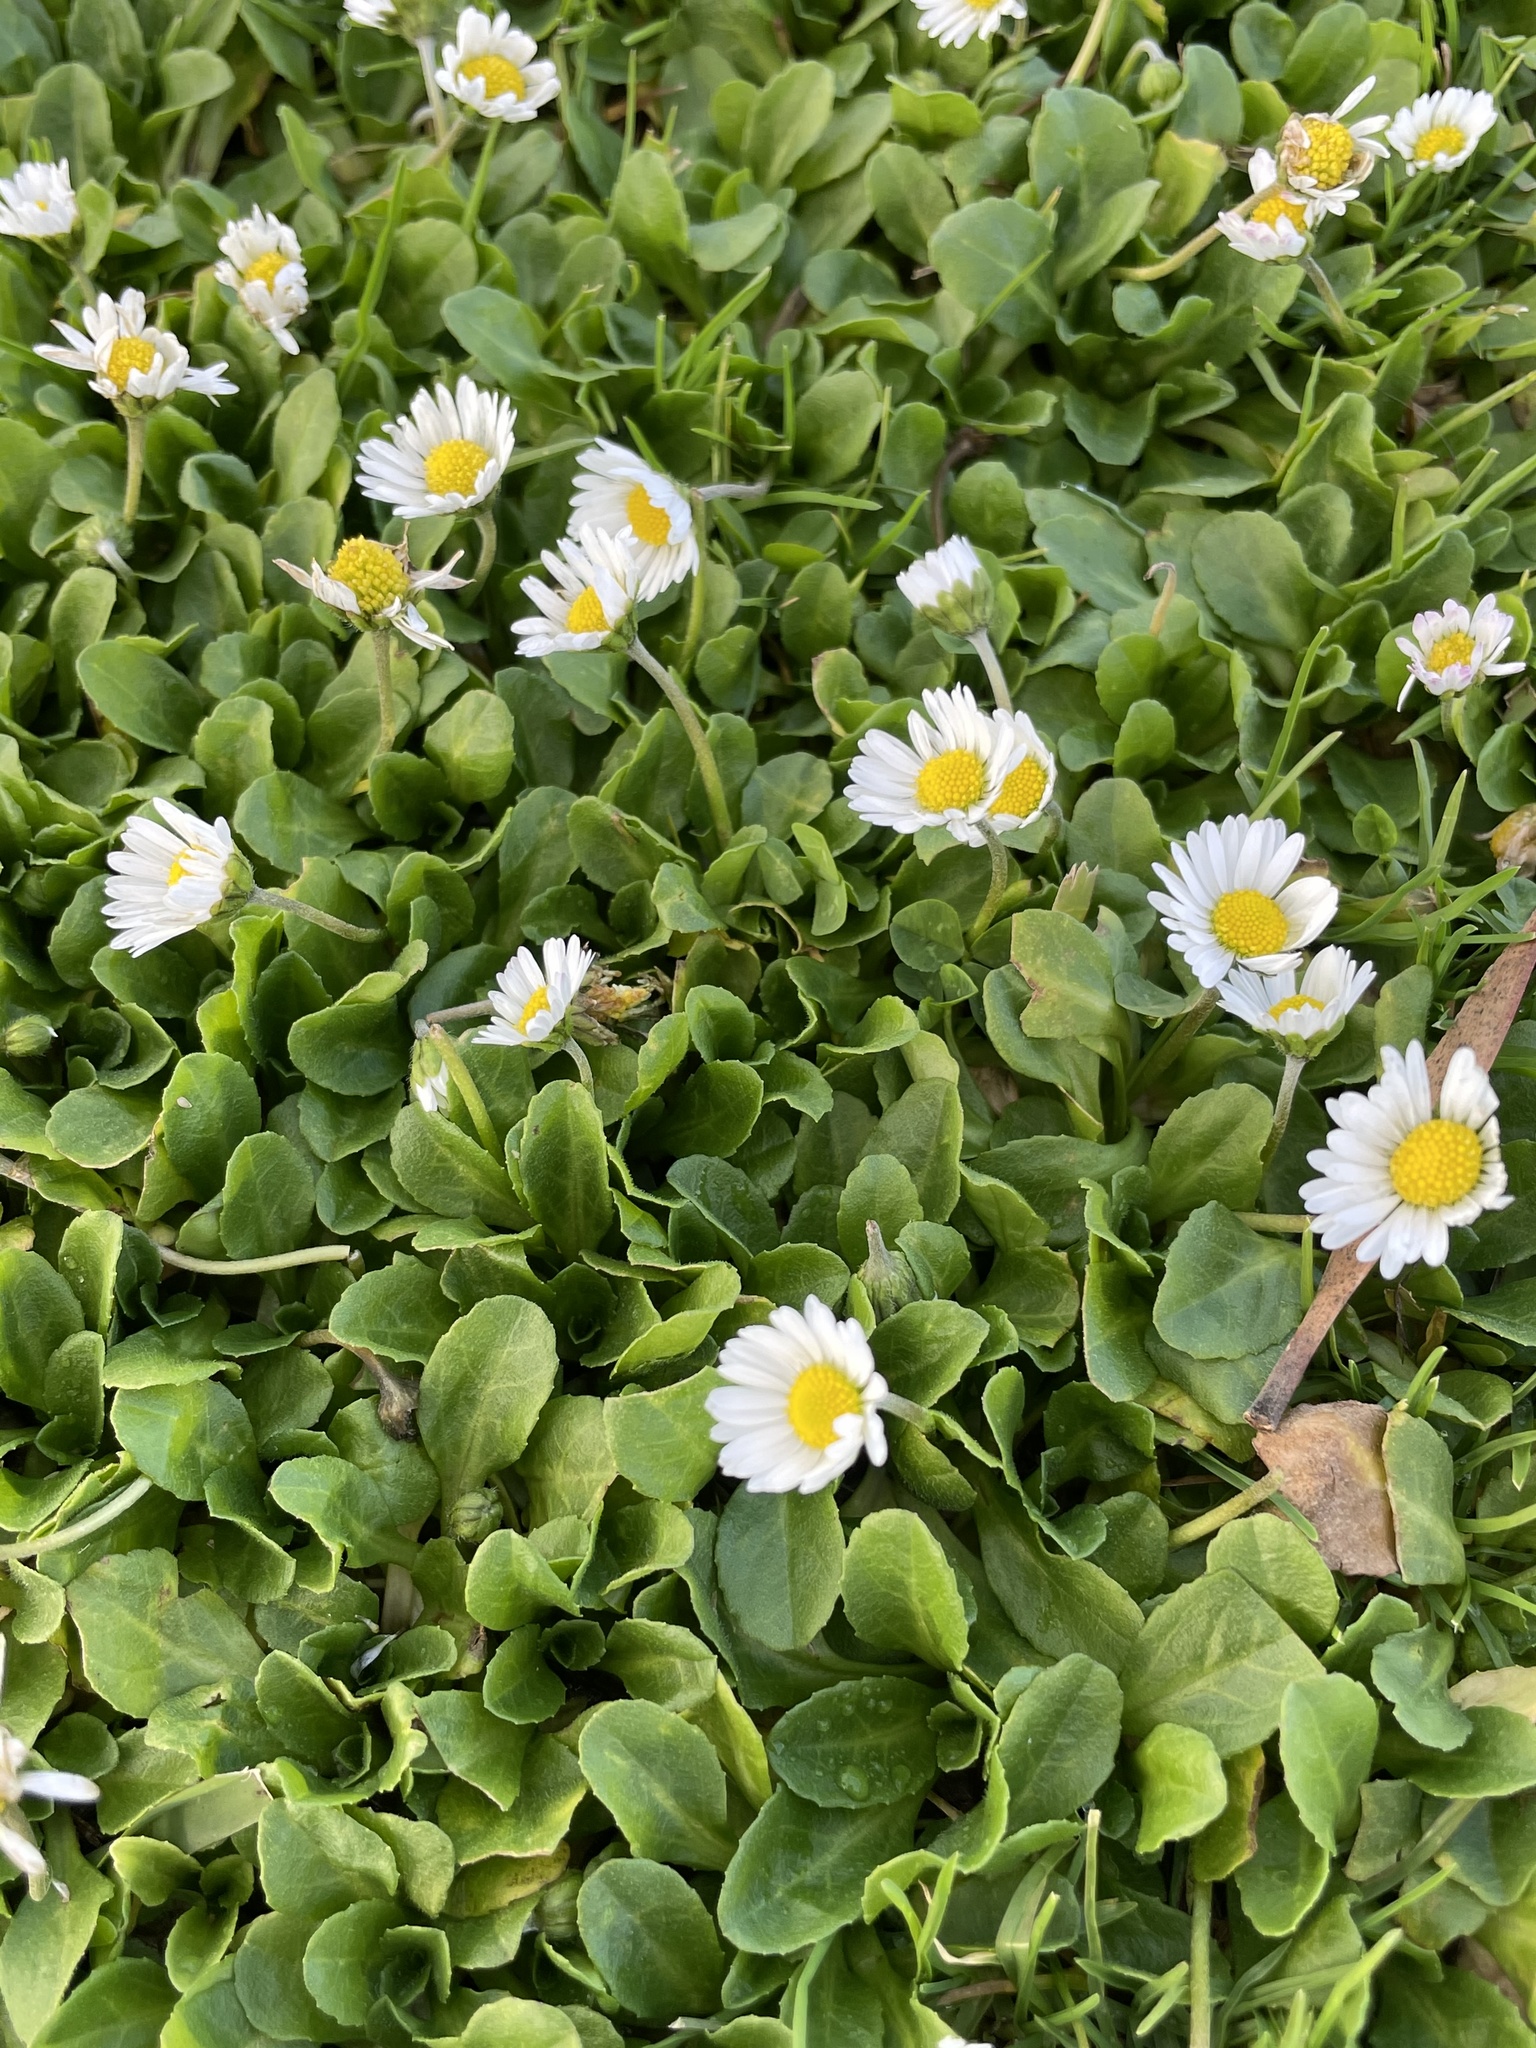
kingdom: Plantae
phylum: Tracheophyta
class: Magnoliopsida
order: Asterales
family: Asteraceae
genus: Bellis
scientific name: Bellis perennis
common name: Lawndaisy
